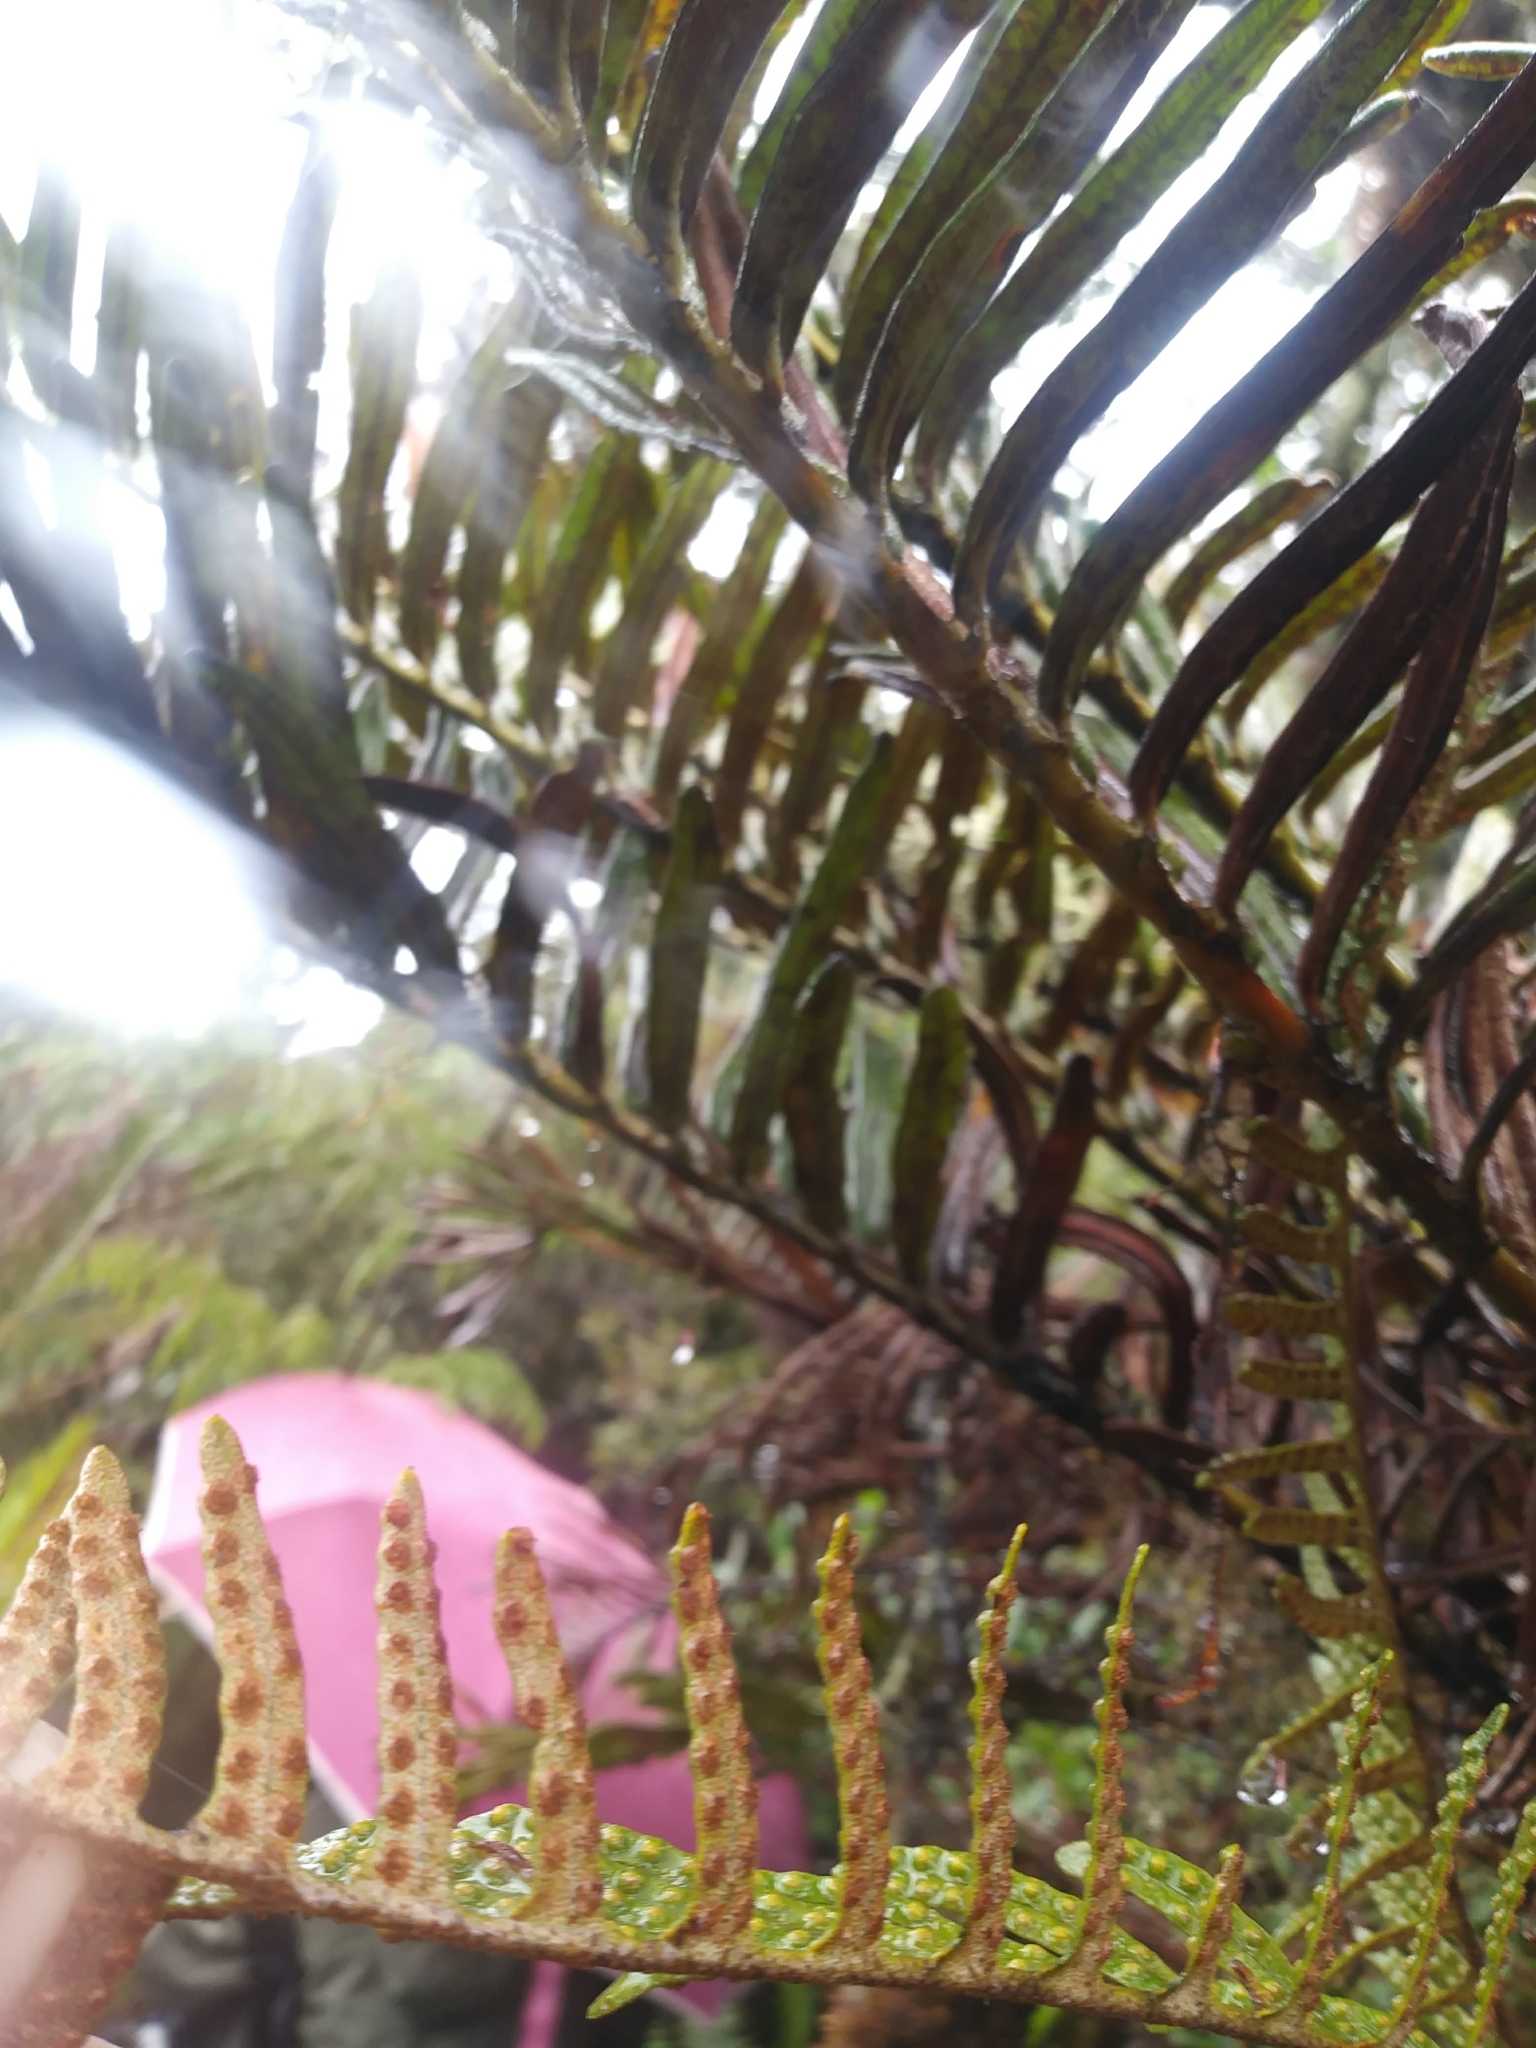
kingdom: Plantae
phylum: Tracheophyta
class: Polypodiopsida
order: Polypodiales
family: Polypodiaceae
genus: Pleopeltis
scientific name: Pleopeltis macrolepis
